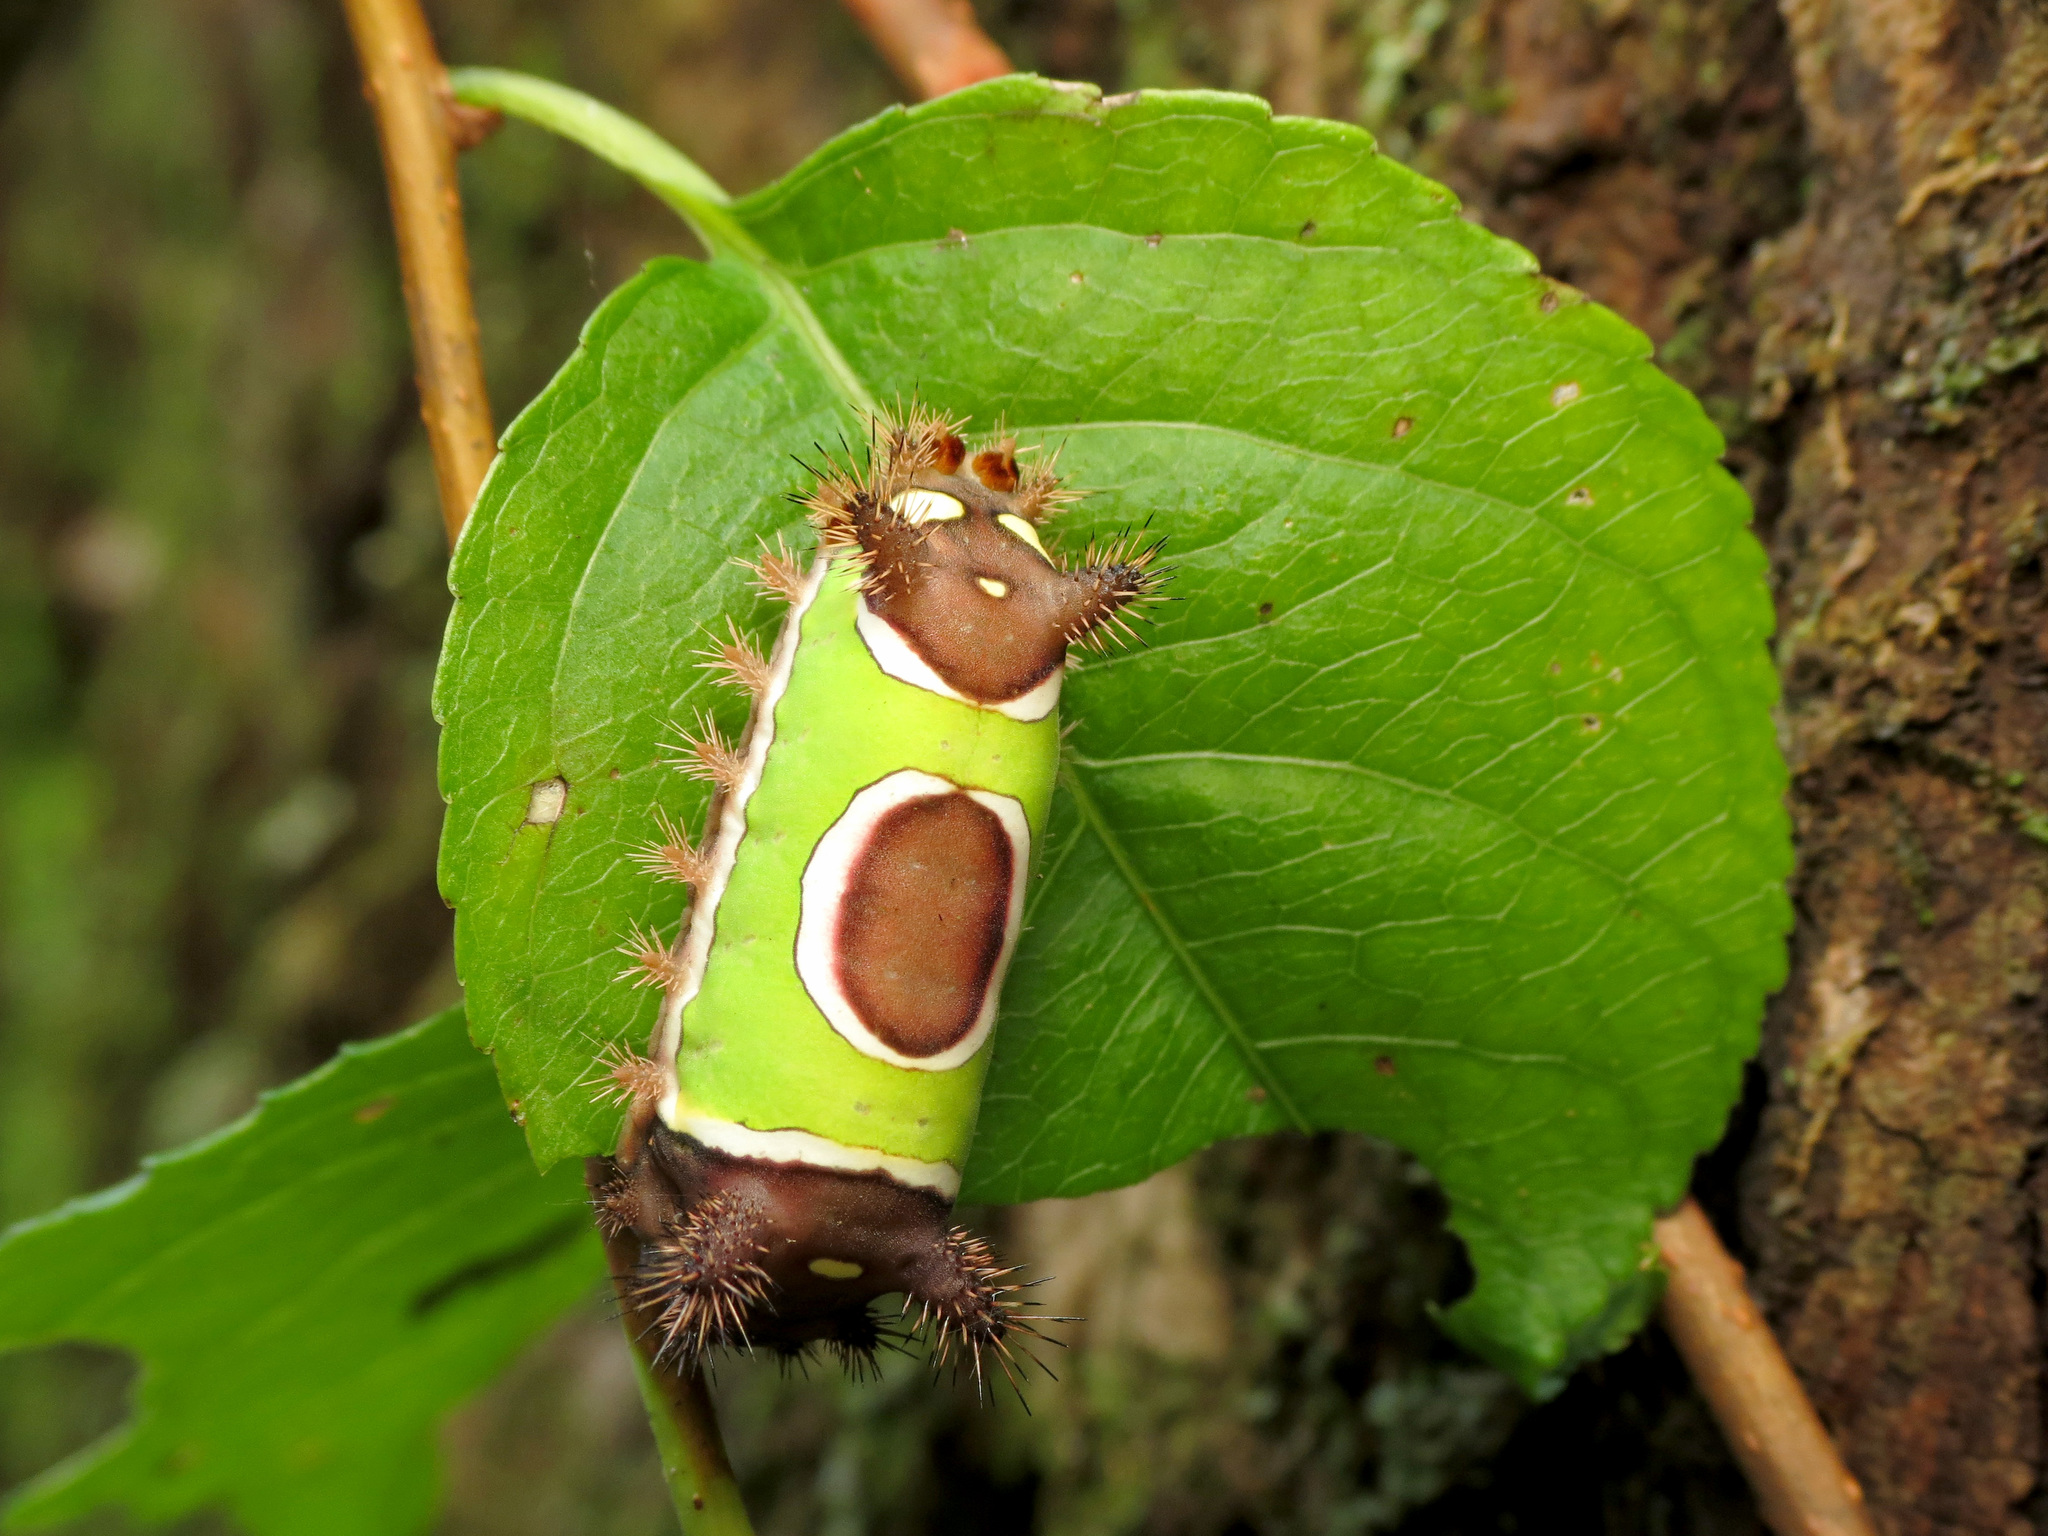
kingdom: Animalia
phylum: Arthropoda
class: Insecta
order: Lepidoptera
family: Limacodidae
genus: Acharia
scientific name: Acharia stimulea
